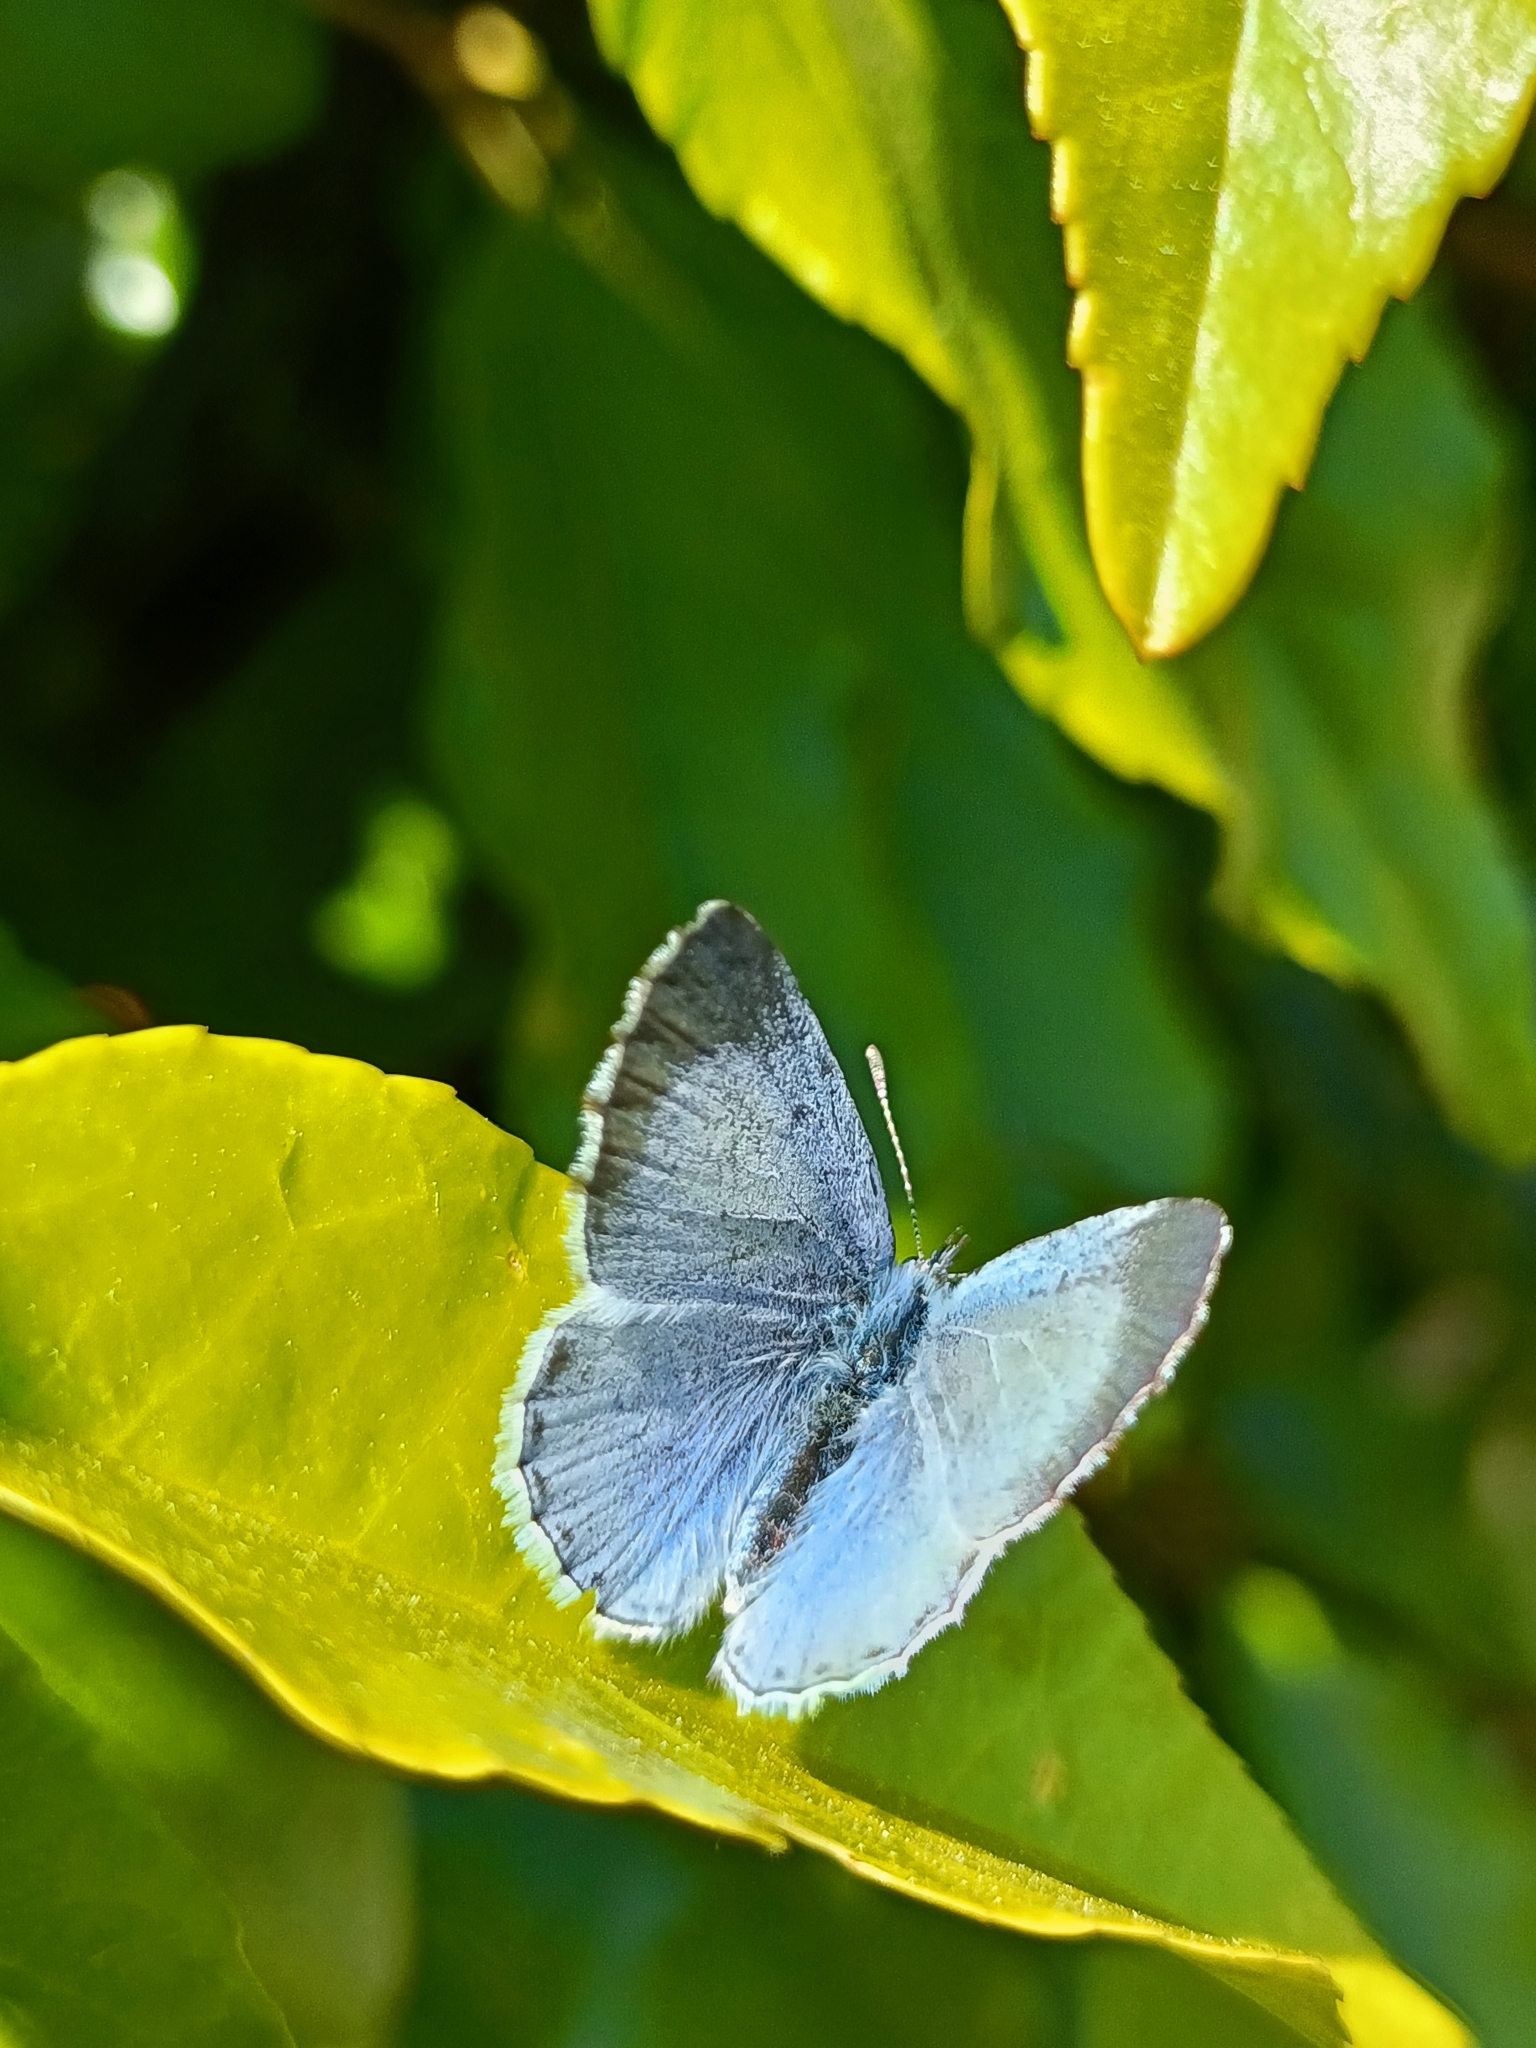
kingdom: Animalia
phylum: Arthropoda
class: Insecta
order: Lepidoptera
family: Lycaenidae
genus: Celastrina
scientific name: Celastrina argiolus
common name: Holly blue
